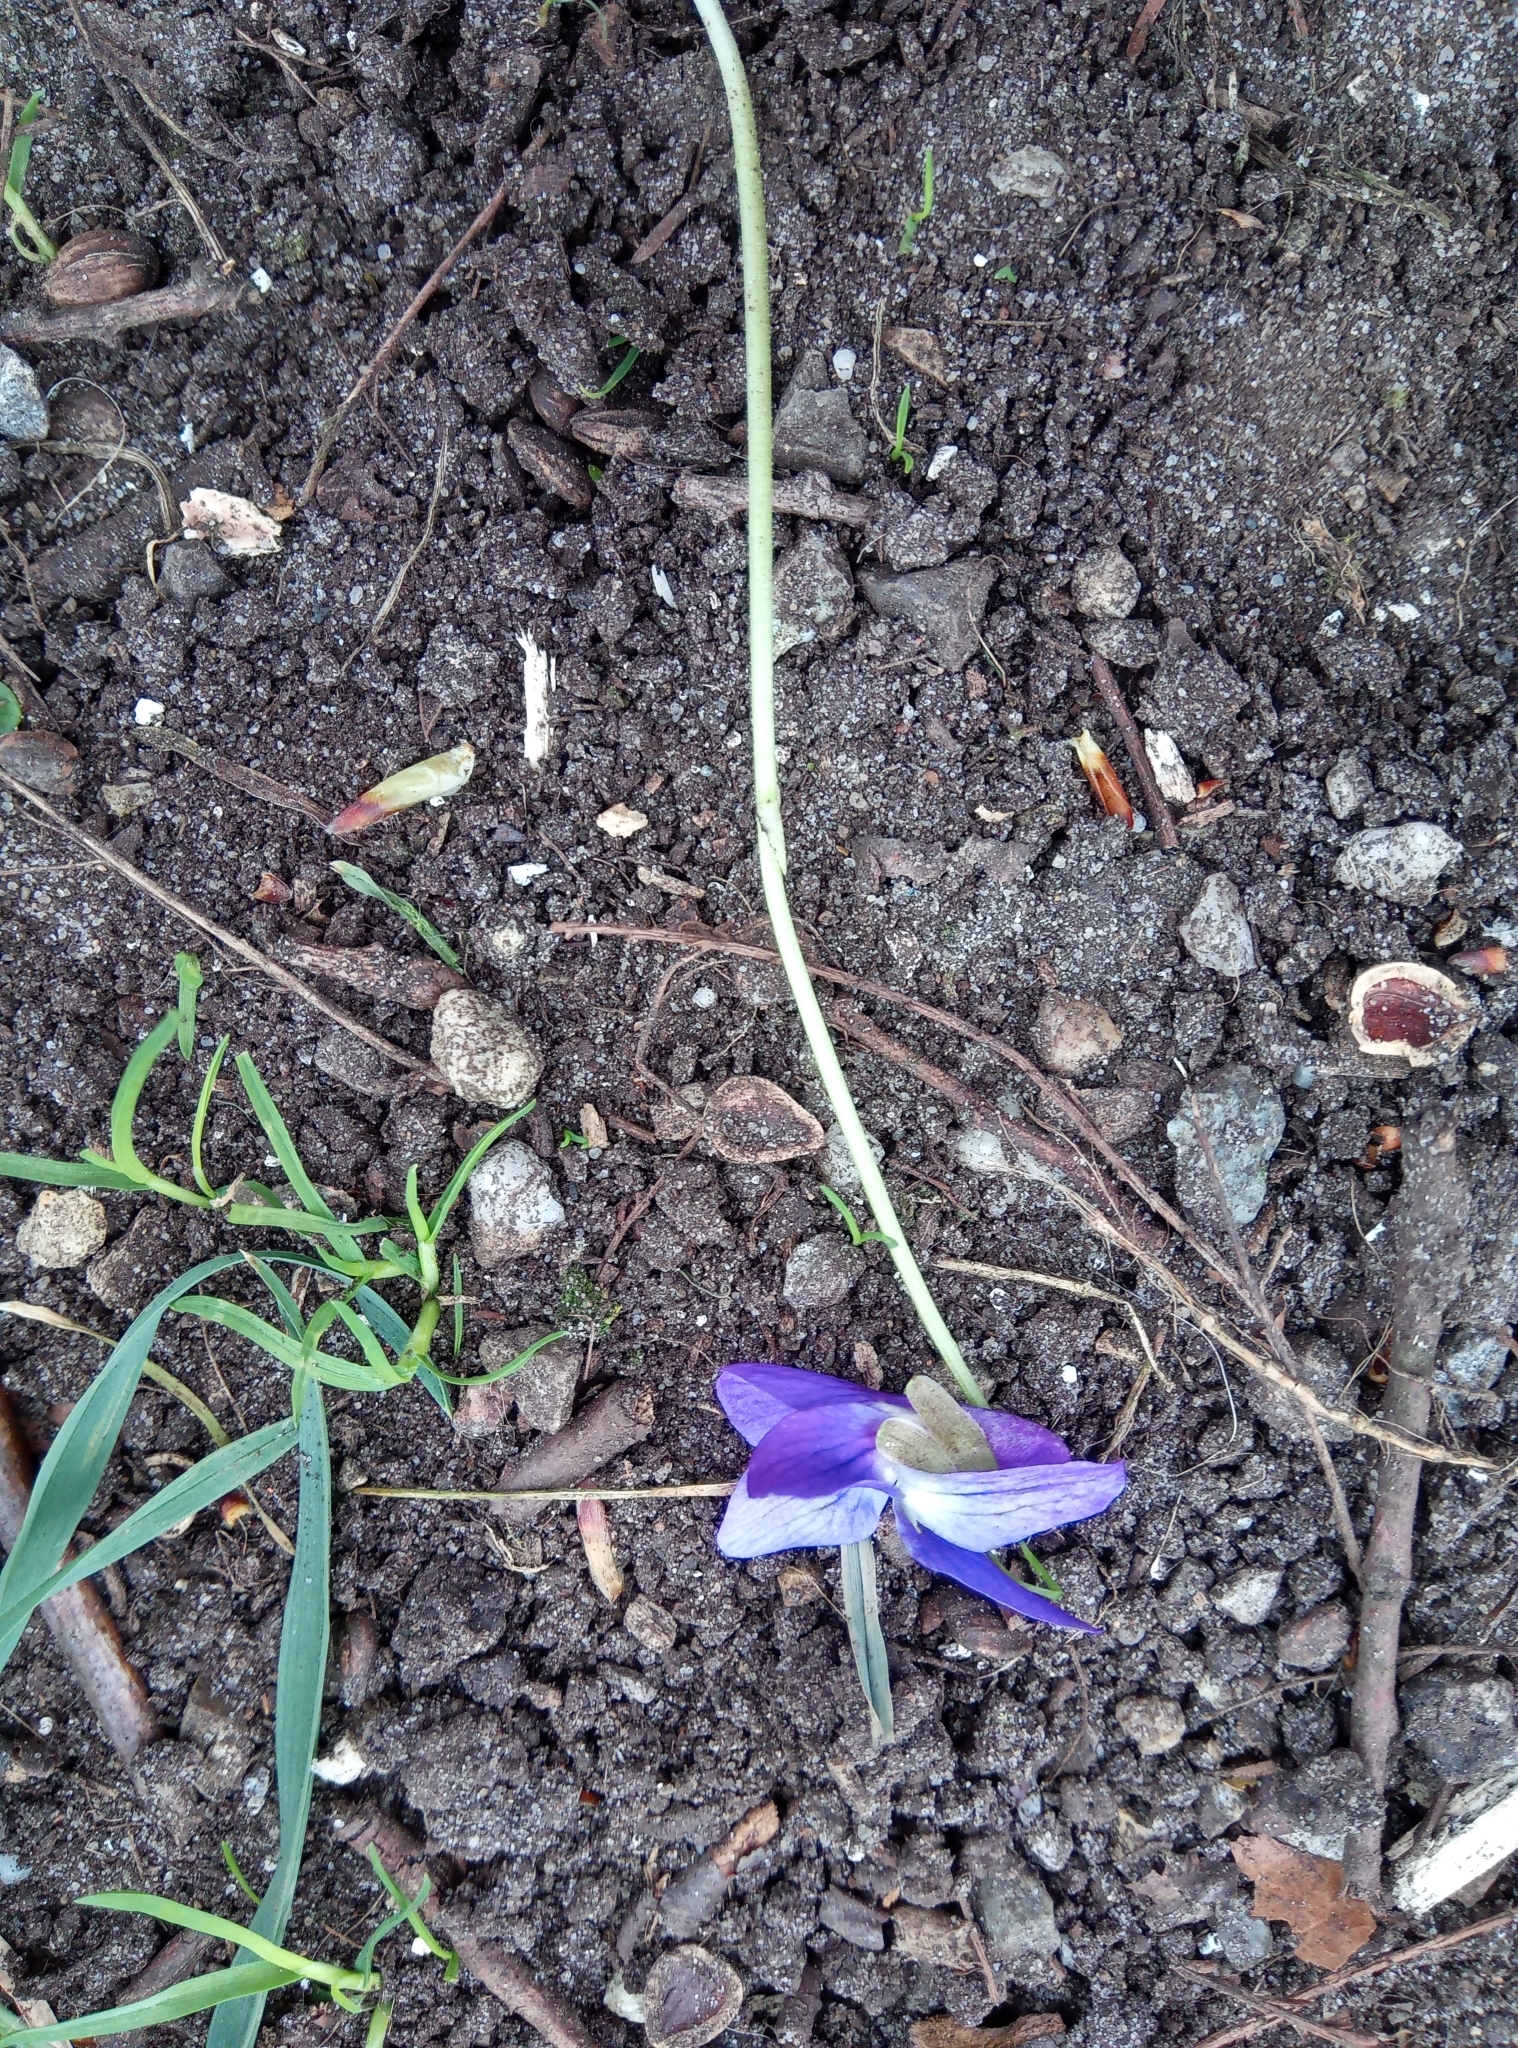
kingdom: Plantae
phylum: Tracheophyta
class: Magnoliopsida
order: Malpighiales
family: Violaceae
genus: Viola
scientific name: Viola odorata
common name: Sweet violet
